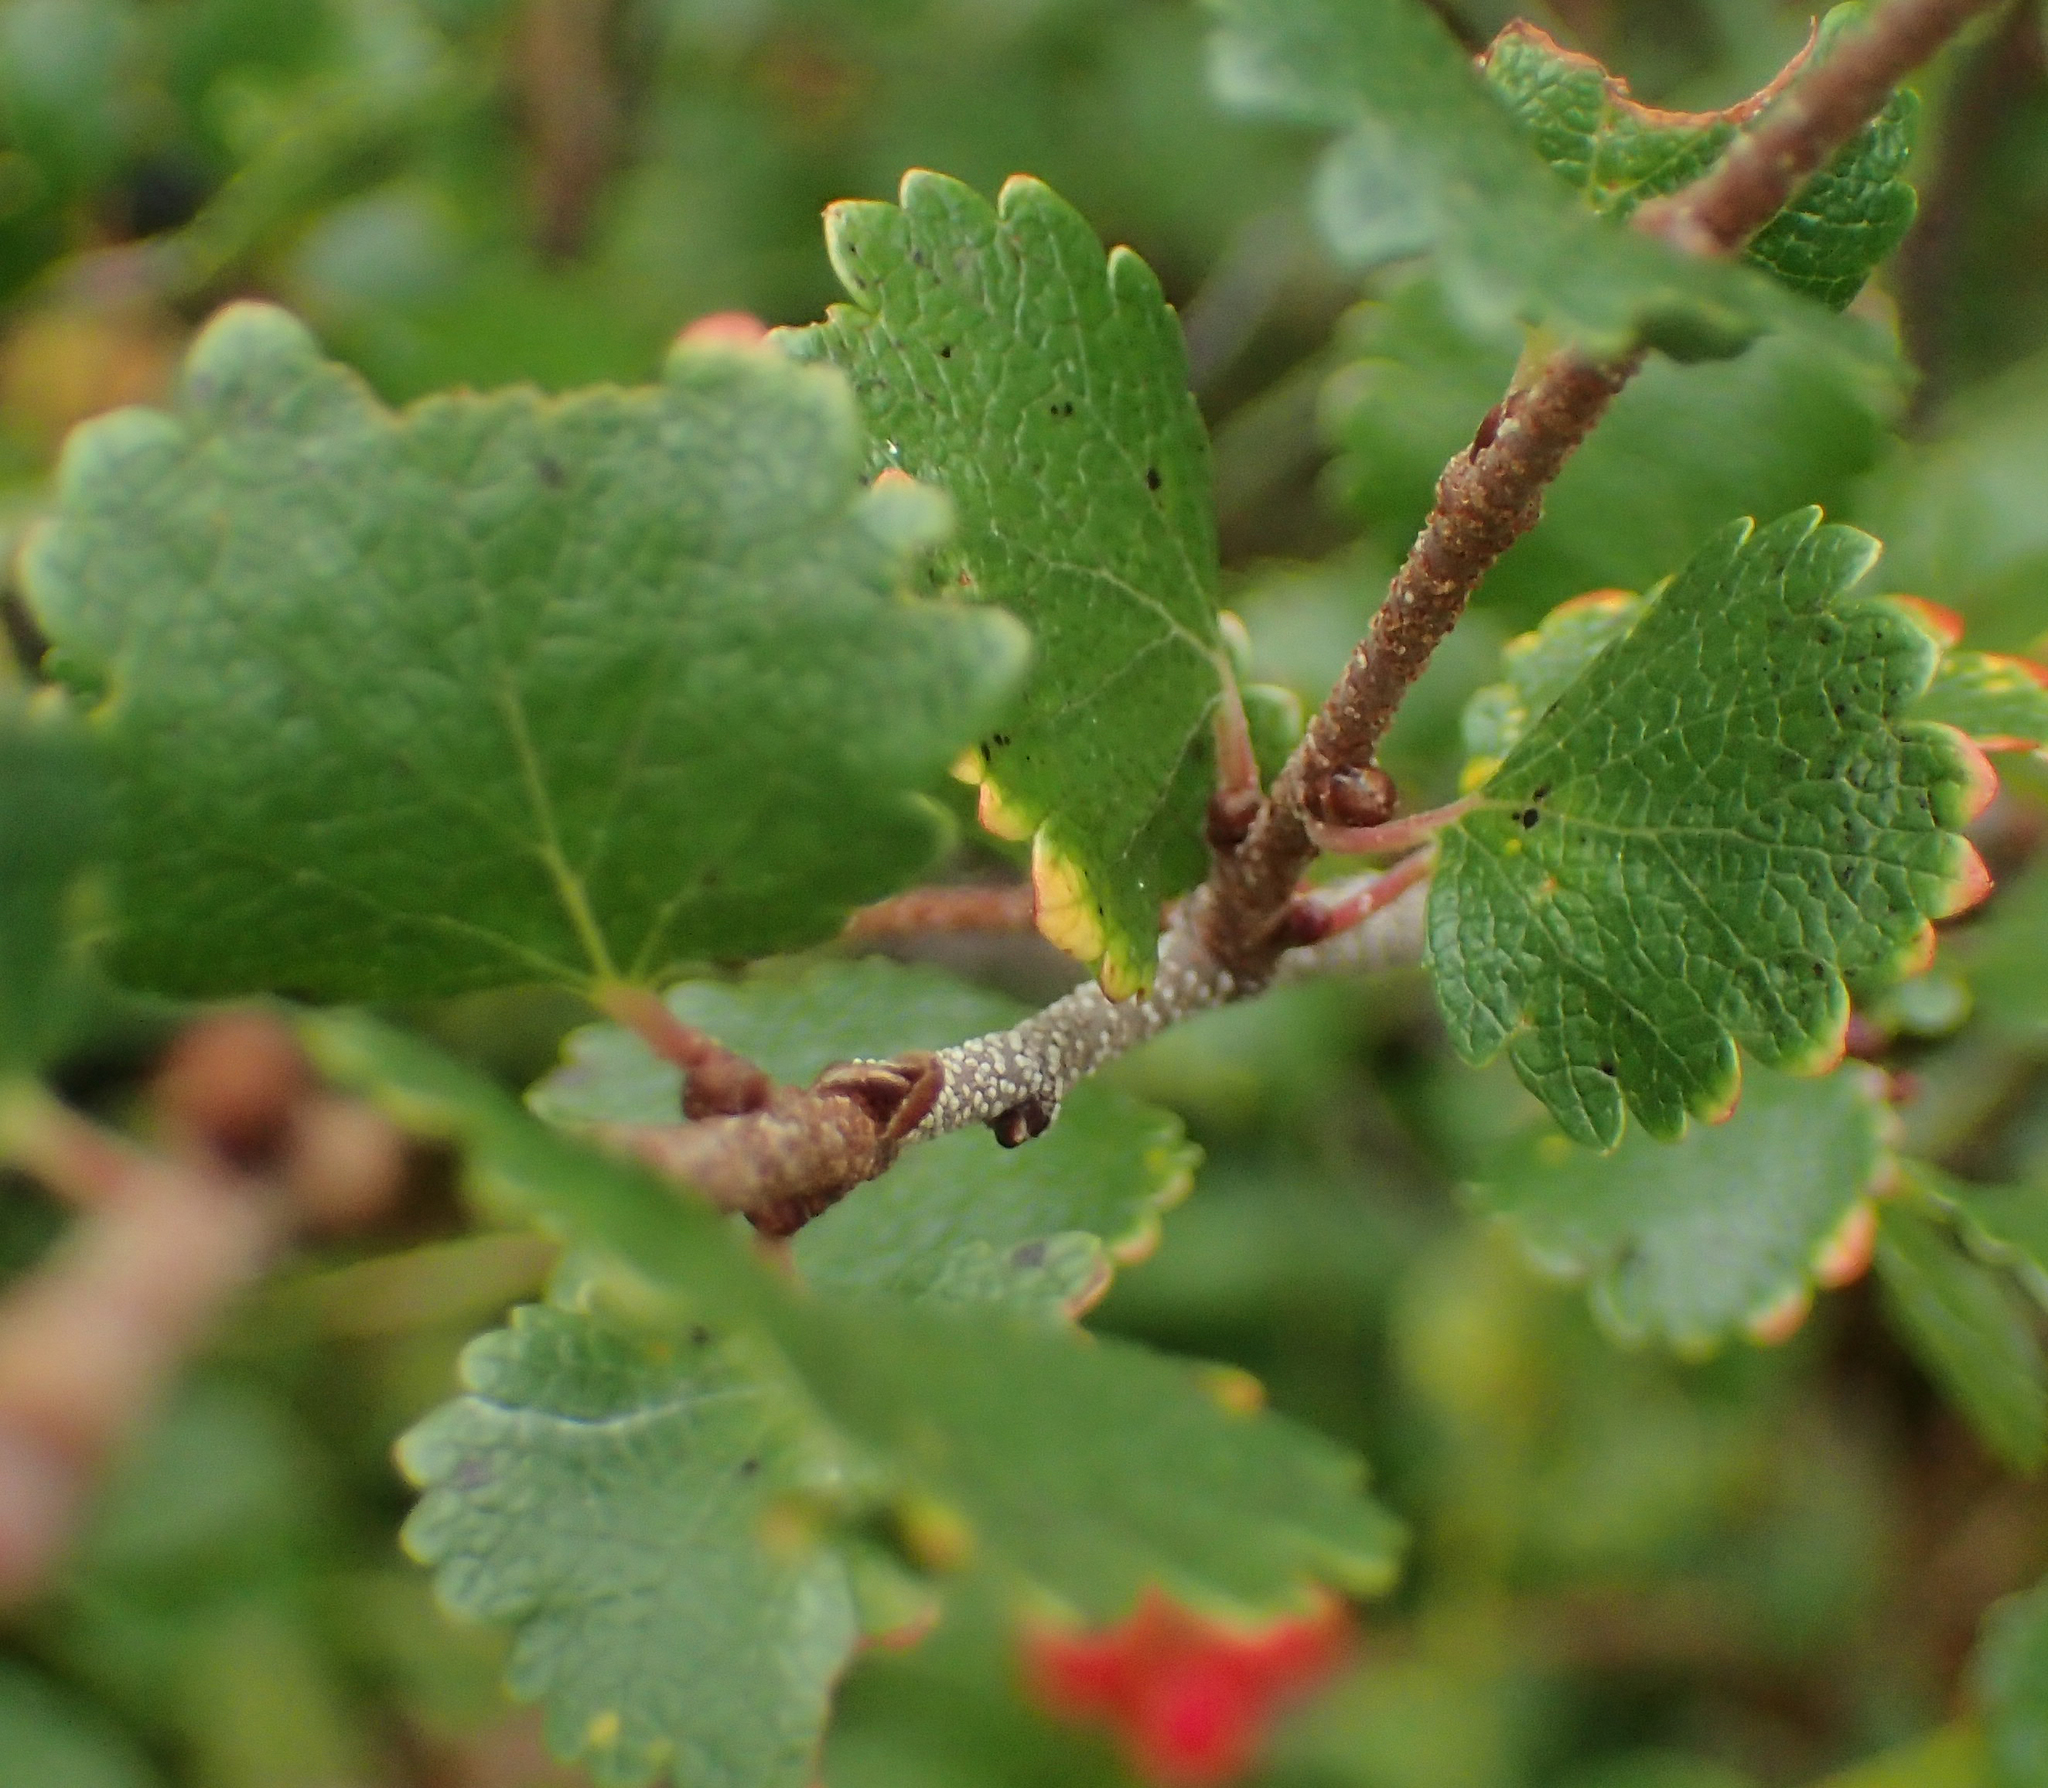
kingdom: Plantae
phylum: Tracheophyta
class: Magnoliopsida
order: Fagales
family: Betulaceae
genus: Betula
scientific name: Betula nana
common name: Arctic dwarf birch
